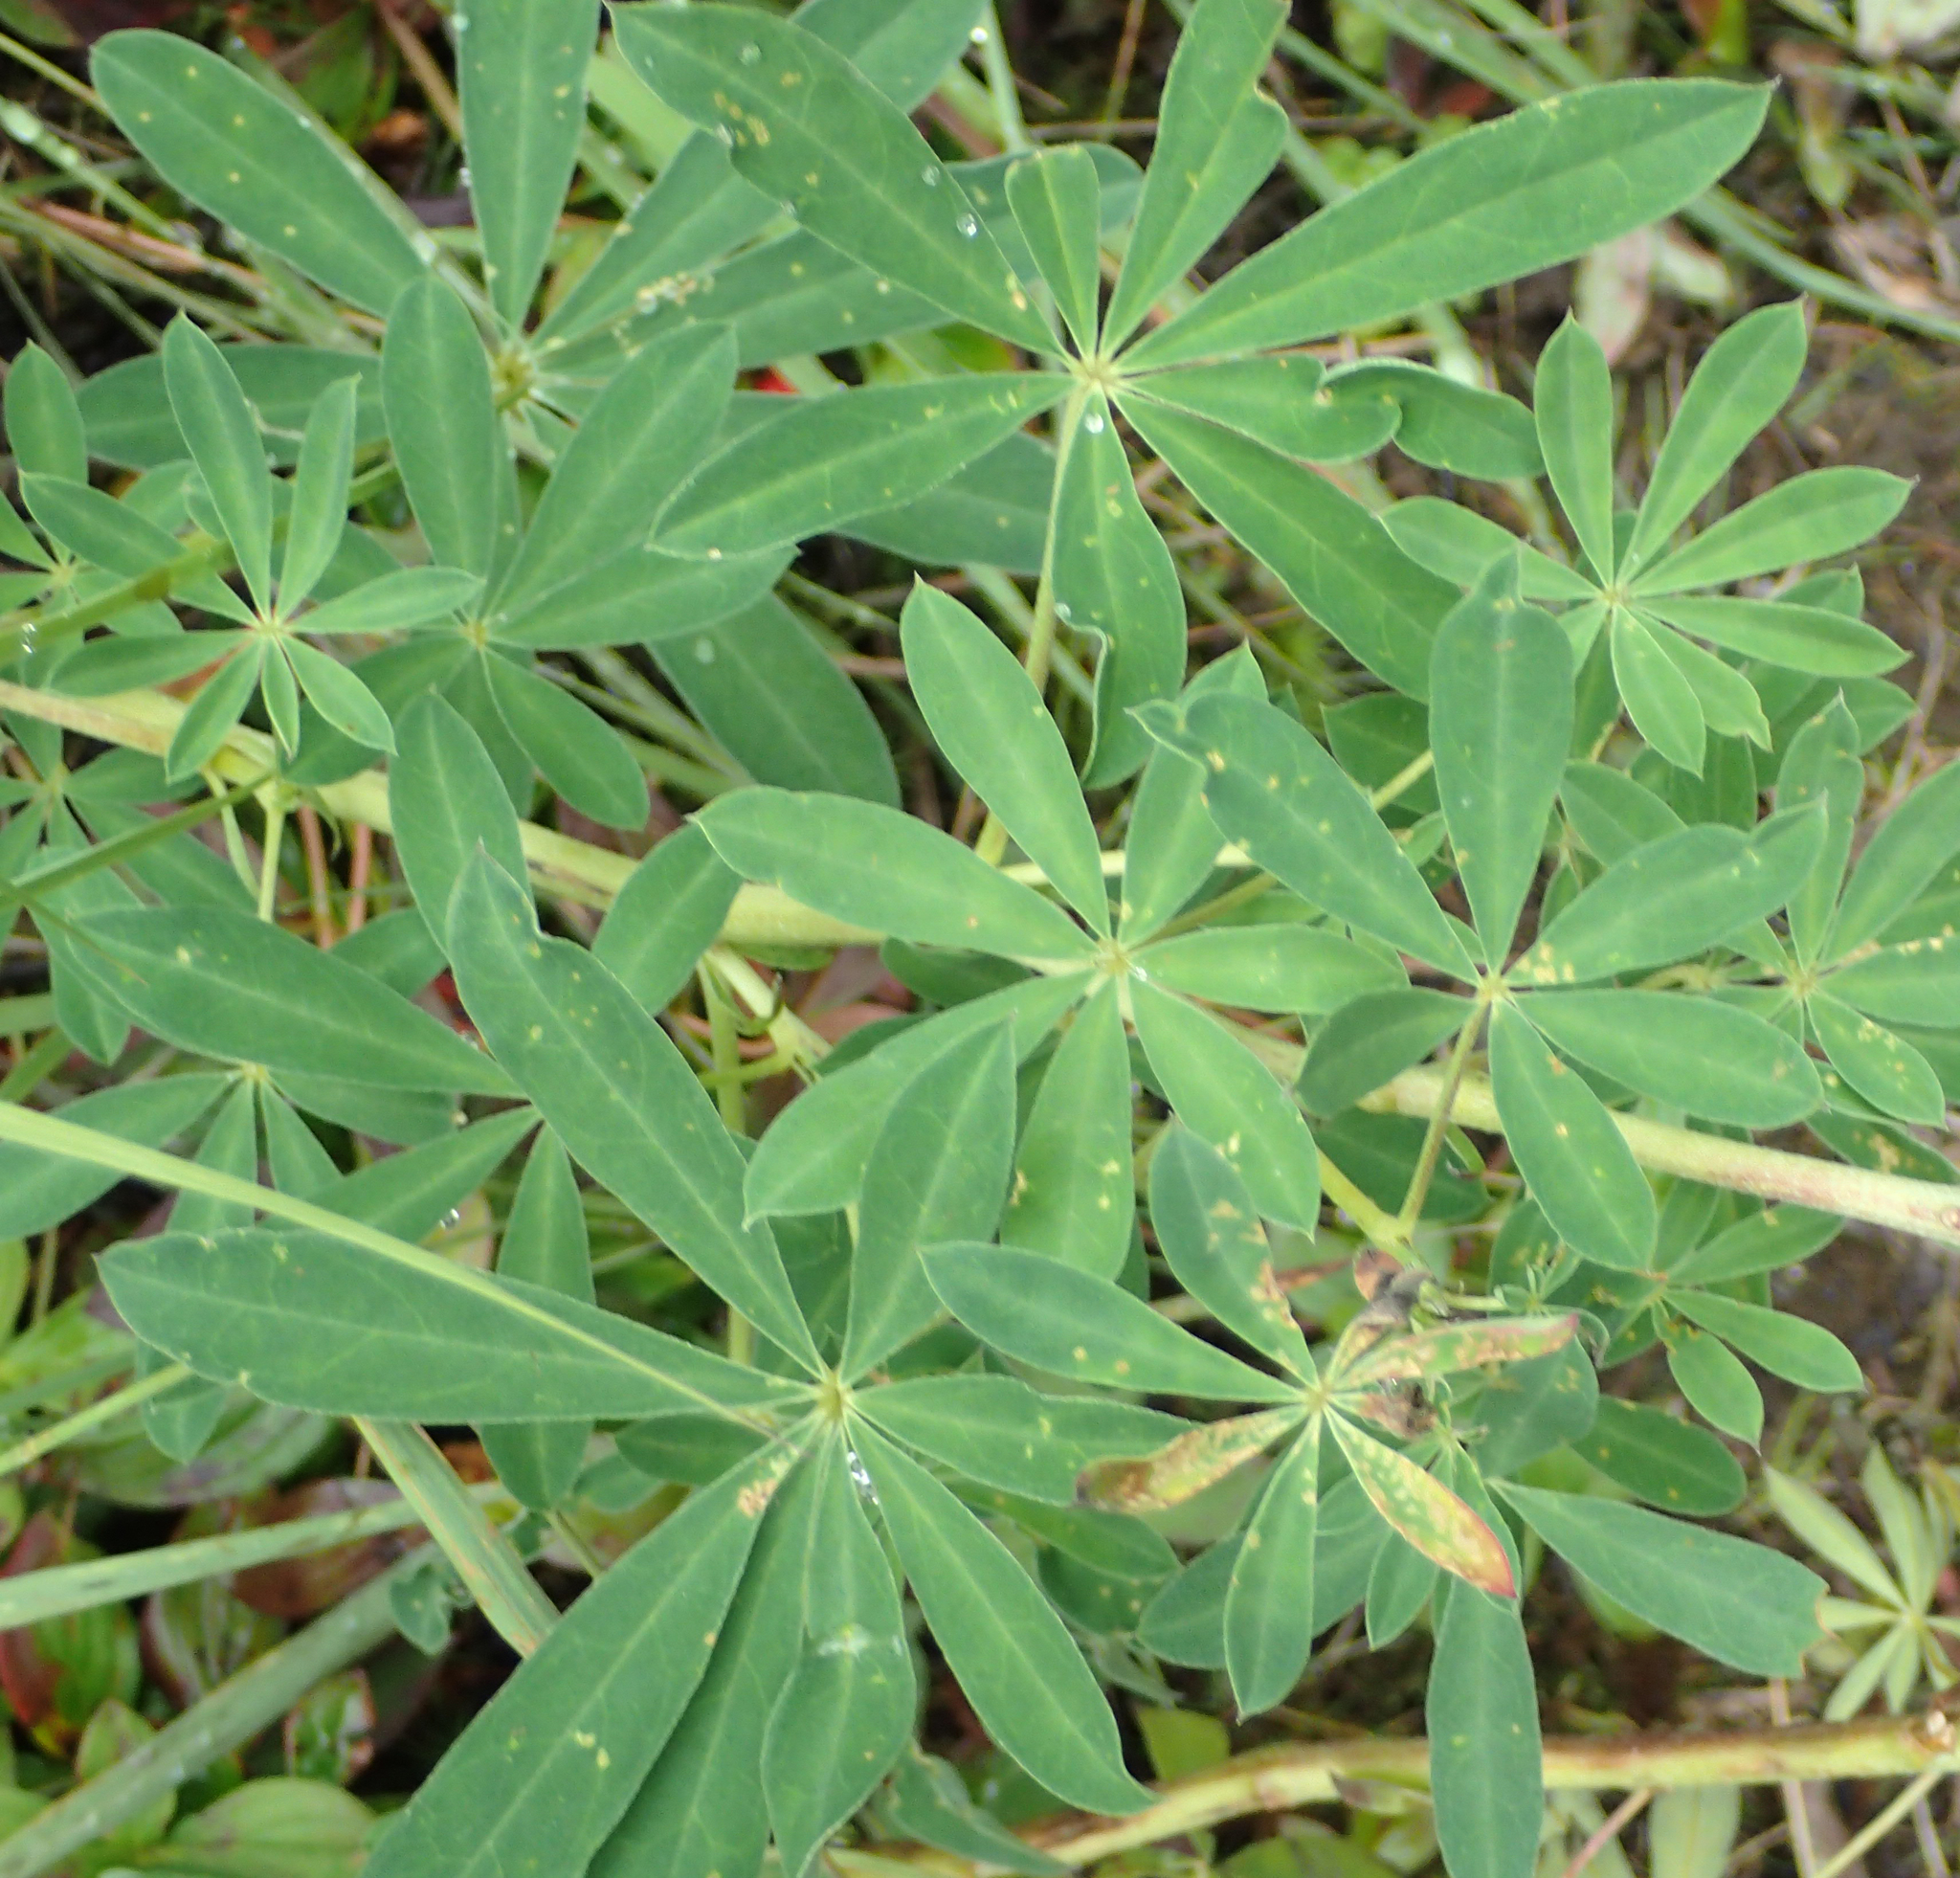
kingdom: Plantae
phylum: Tracheophyta
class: Magnoliopsida
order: Fabales
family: Fabaceae
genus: Lupinus
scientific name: Lupinus nootkatensis
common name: Nootka lupine
